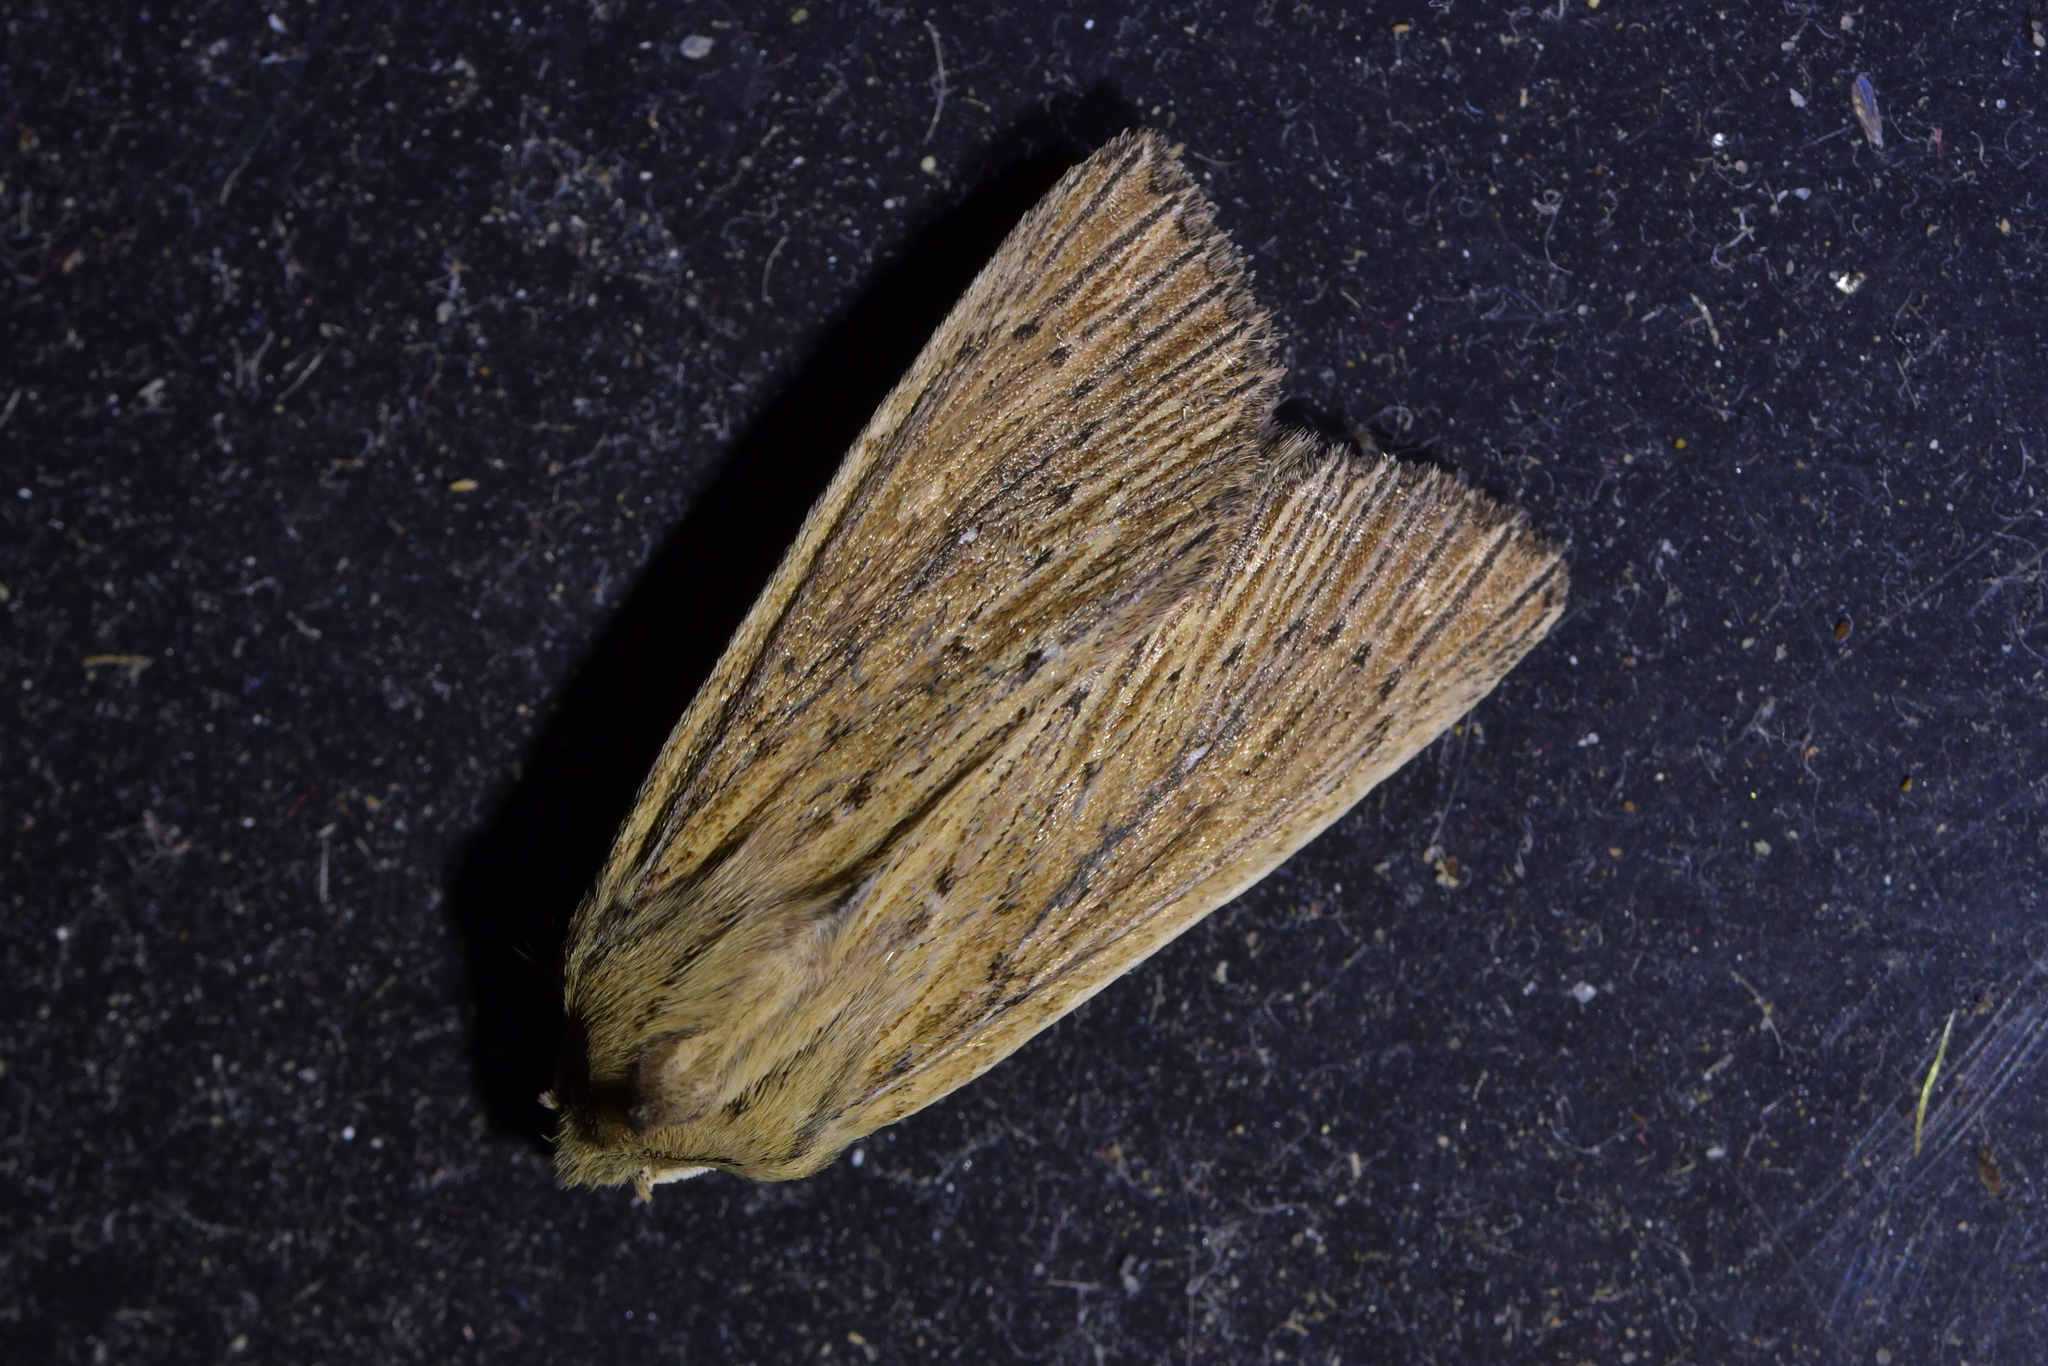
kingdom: Animalia
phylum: Arthropoda
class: Insecta
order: Lepidoptera
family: Noctuidae
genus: Ichneutica
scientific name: Ichneutica arotis
